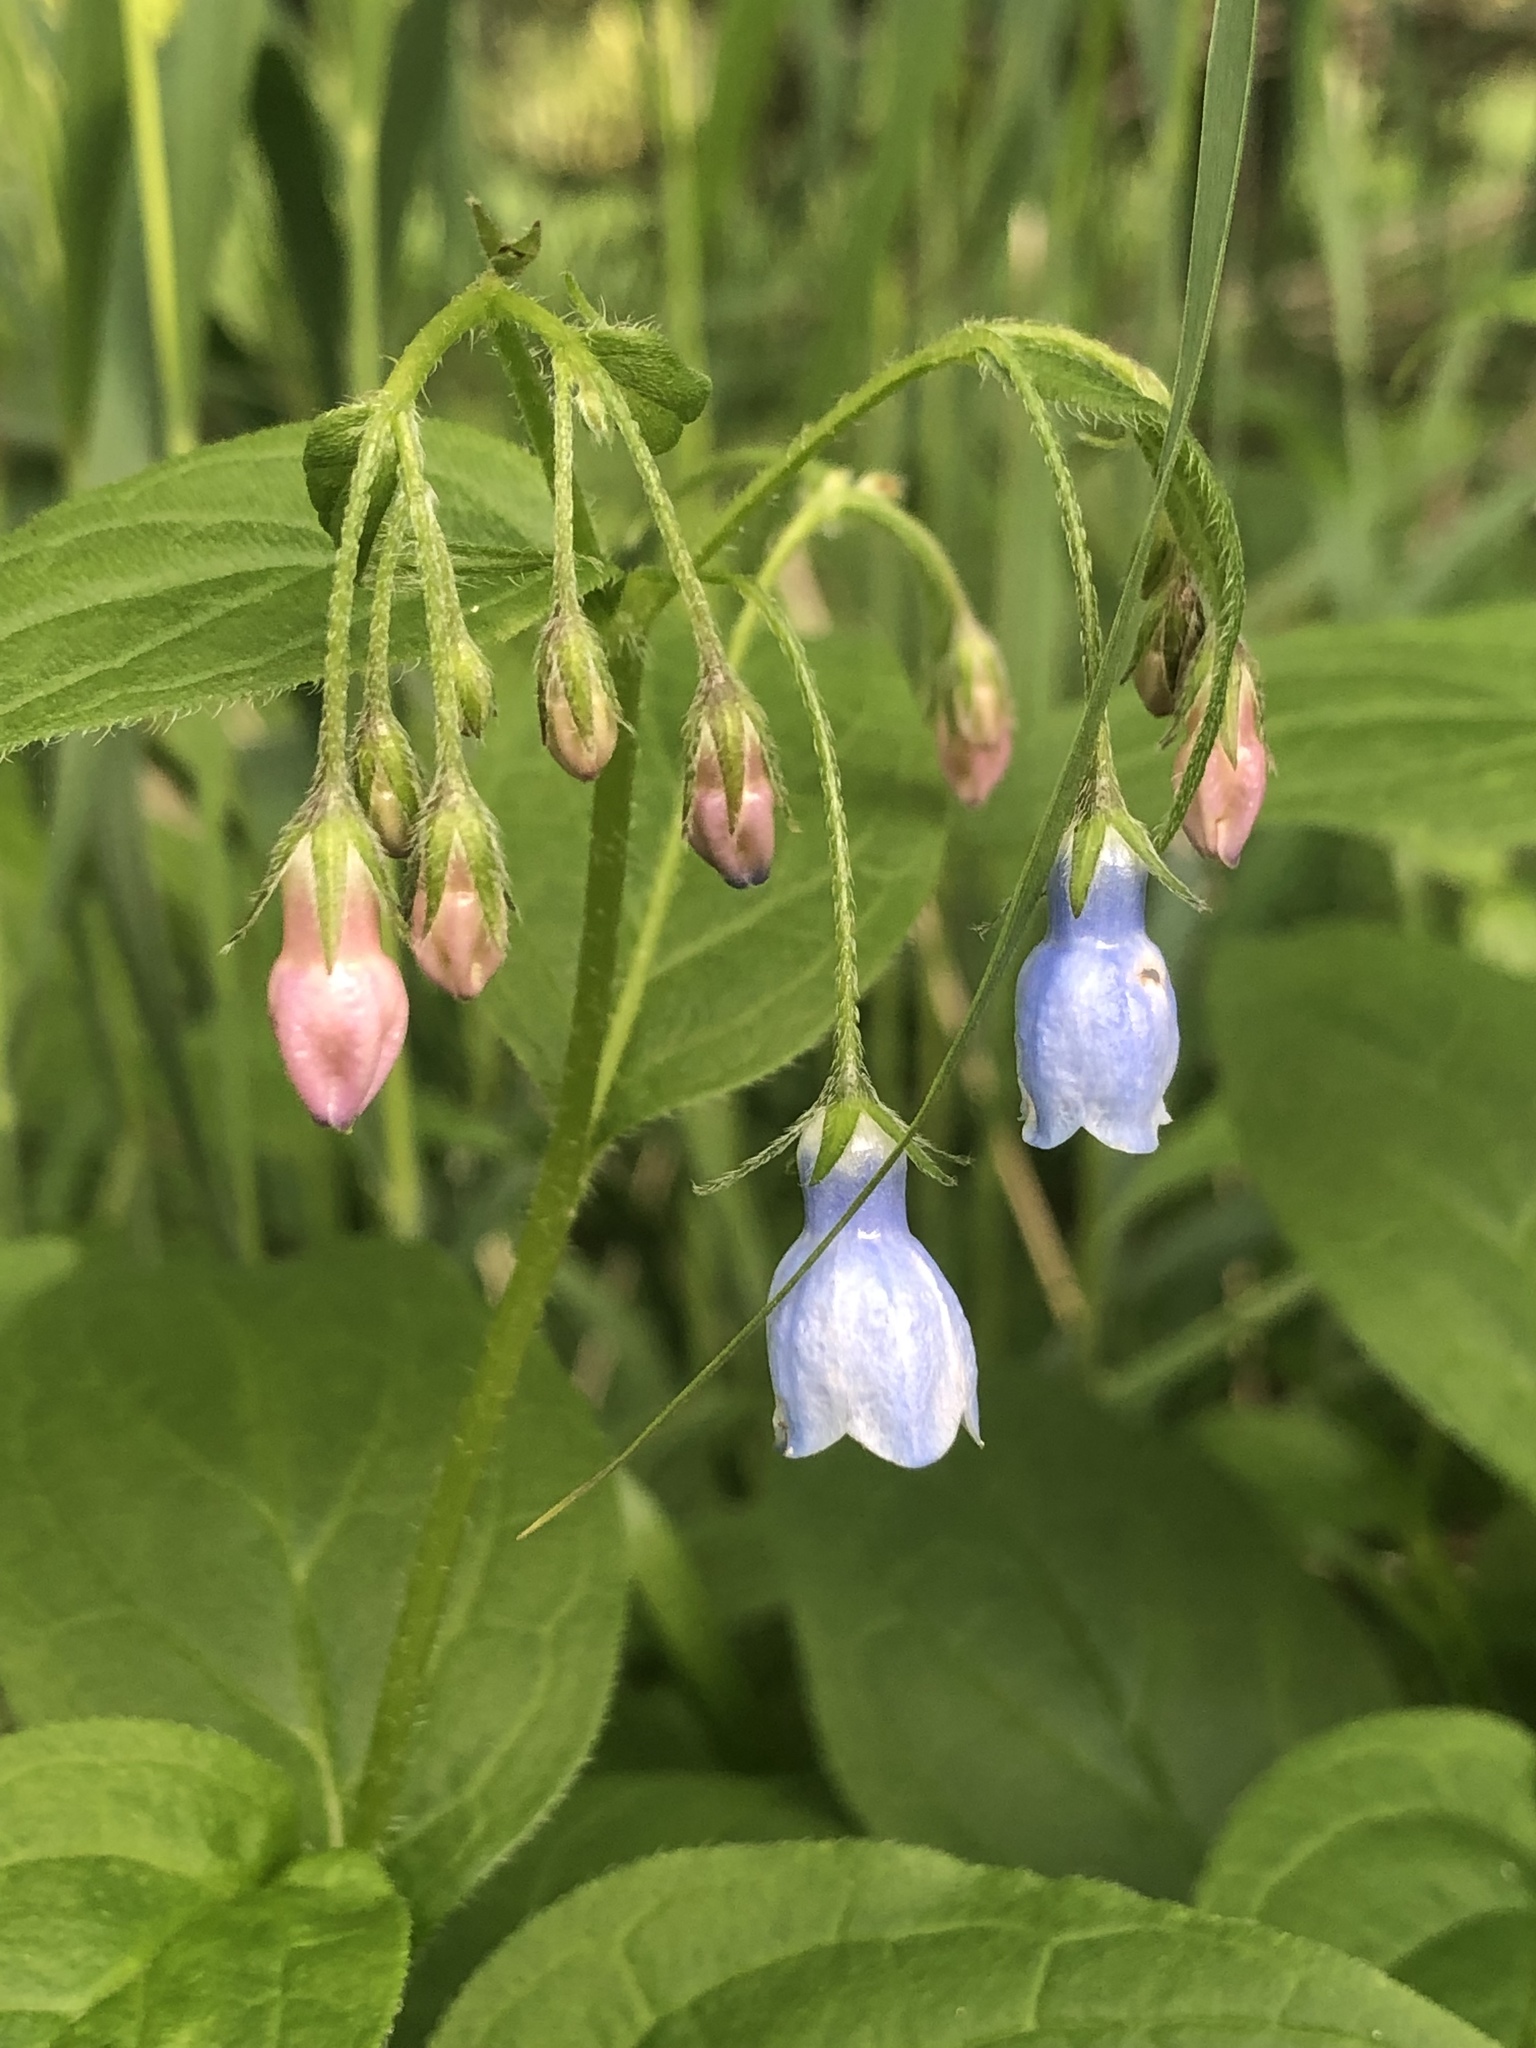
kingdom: Plantae
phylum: Tracheophyta
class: Magnoliopsida
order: Boraginales
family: Boraginaceae
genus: Mertensia
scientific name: Mertensia paniculata
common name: Panicled bluebells
